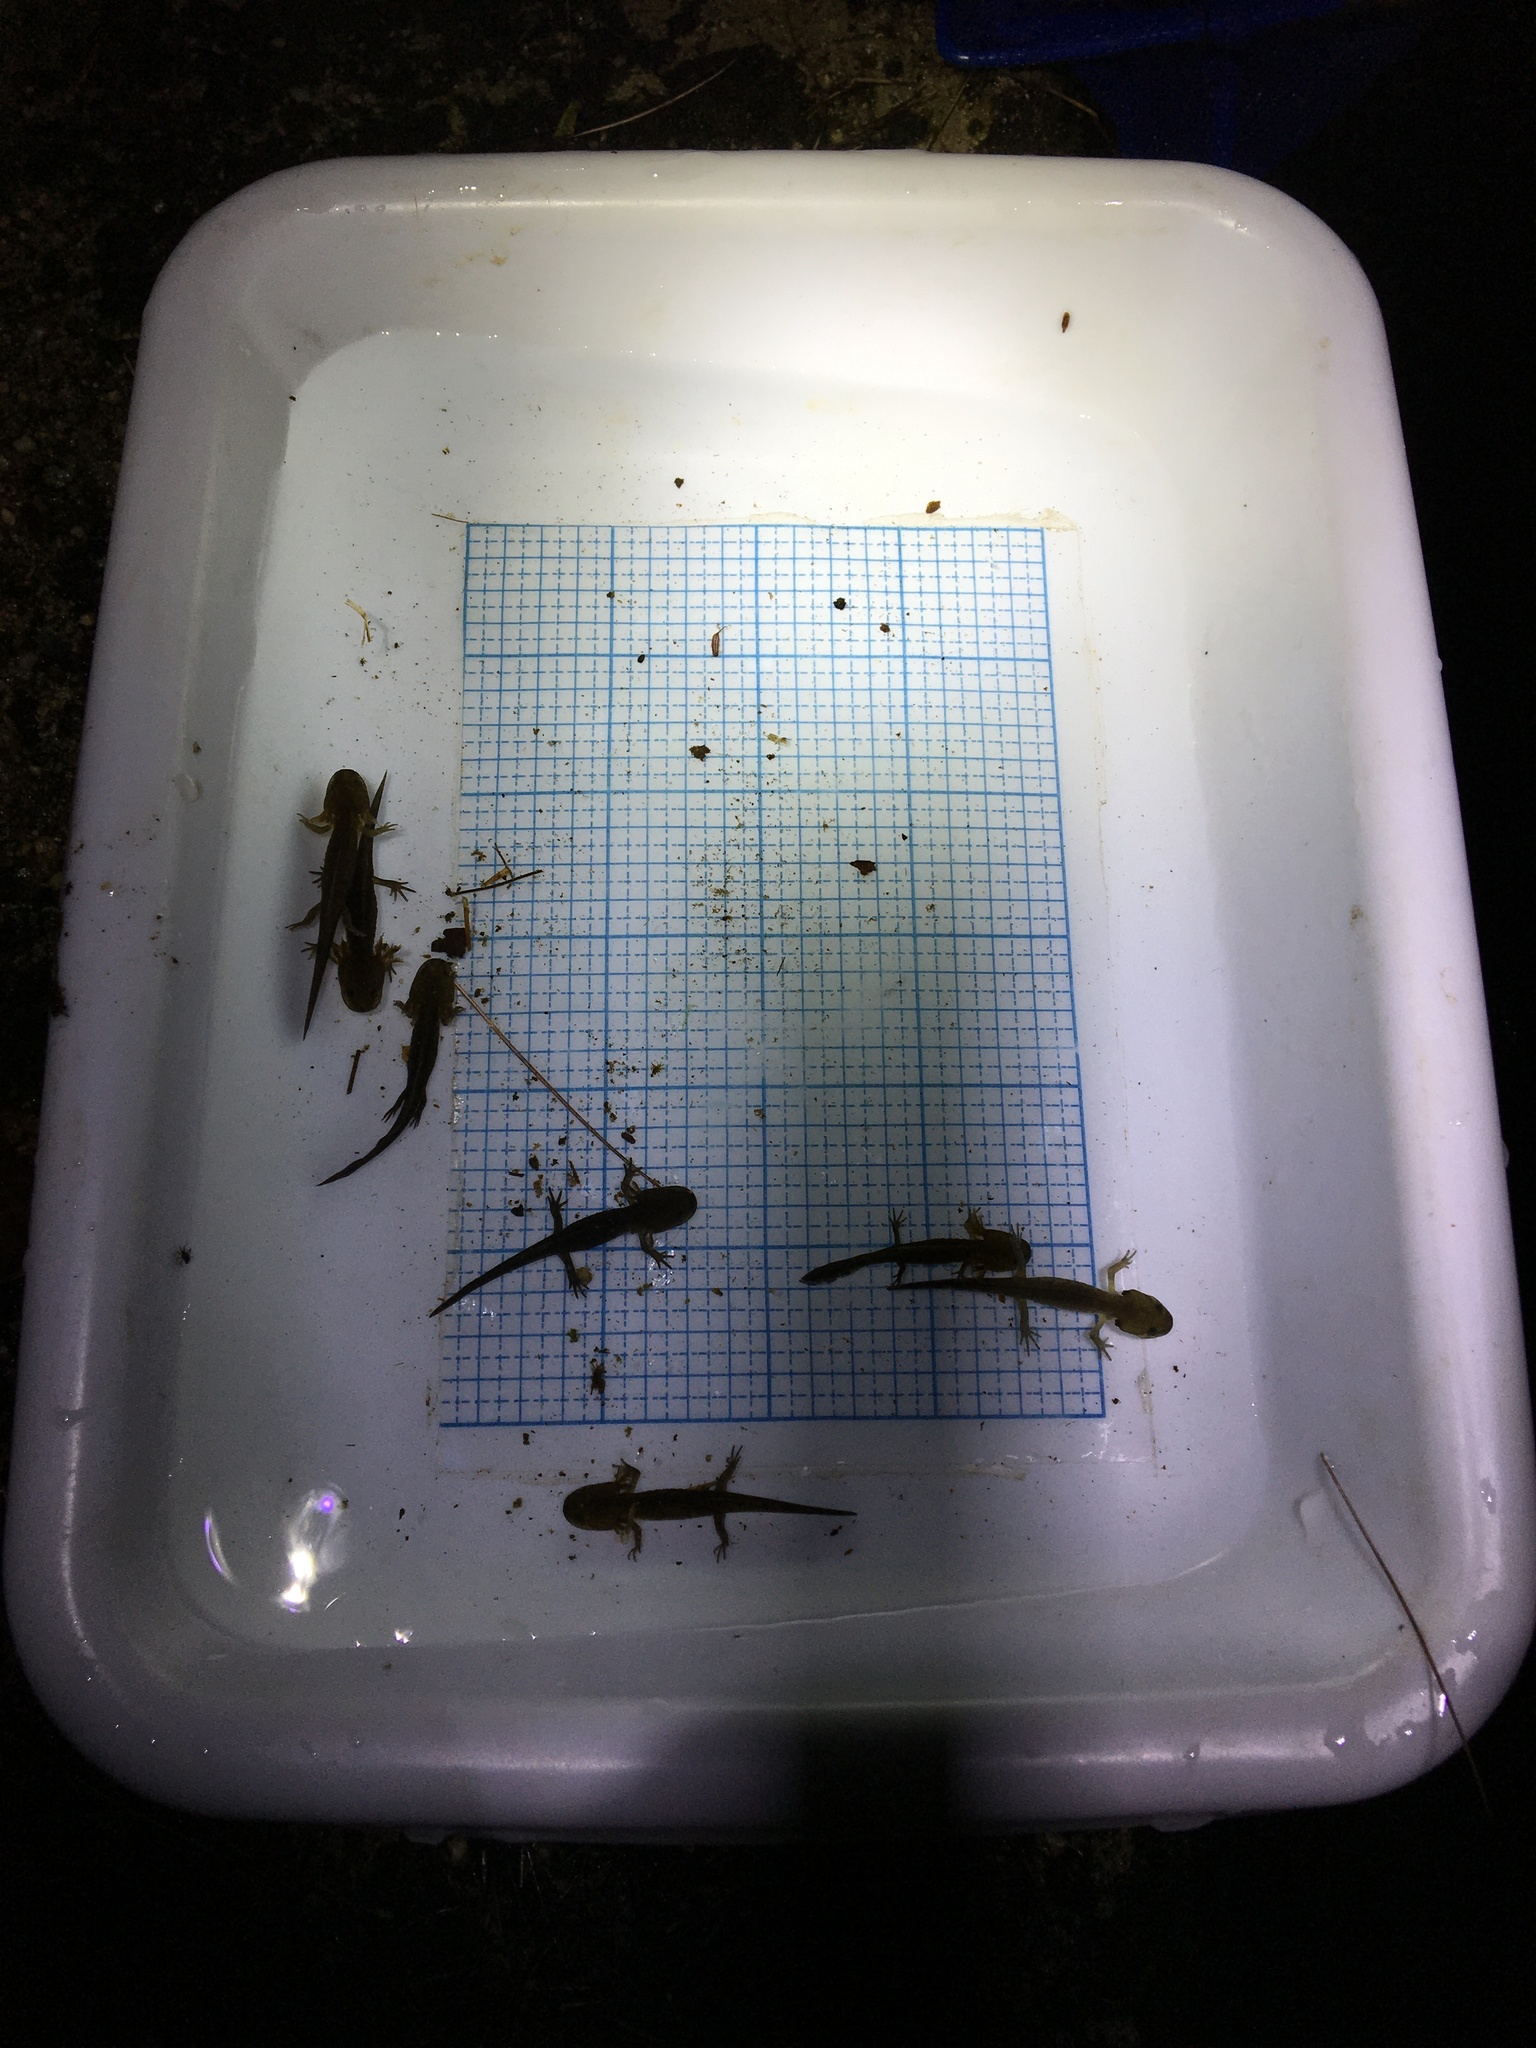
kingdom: Animalia
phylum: Chordata
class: Amphibia
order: Caudata
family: Ambystomatidae
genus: Ambystoma
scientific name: Ambystoma maculatum
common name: Spotted salamander
